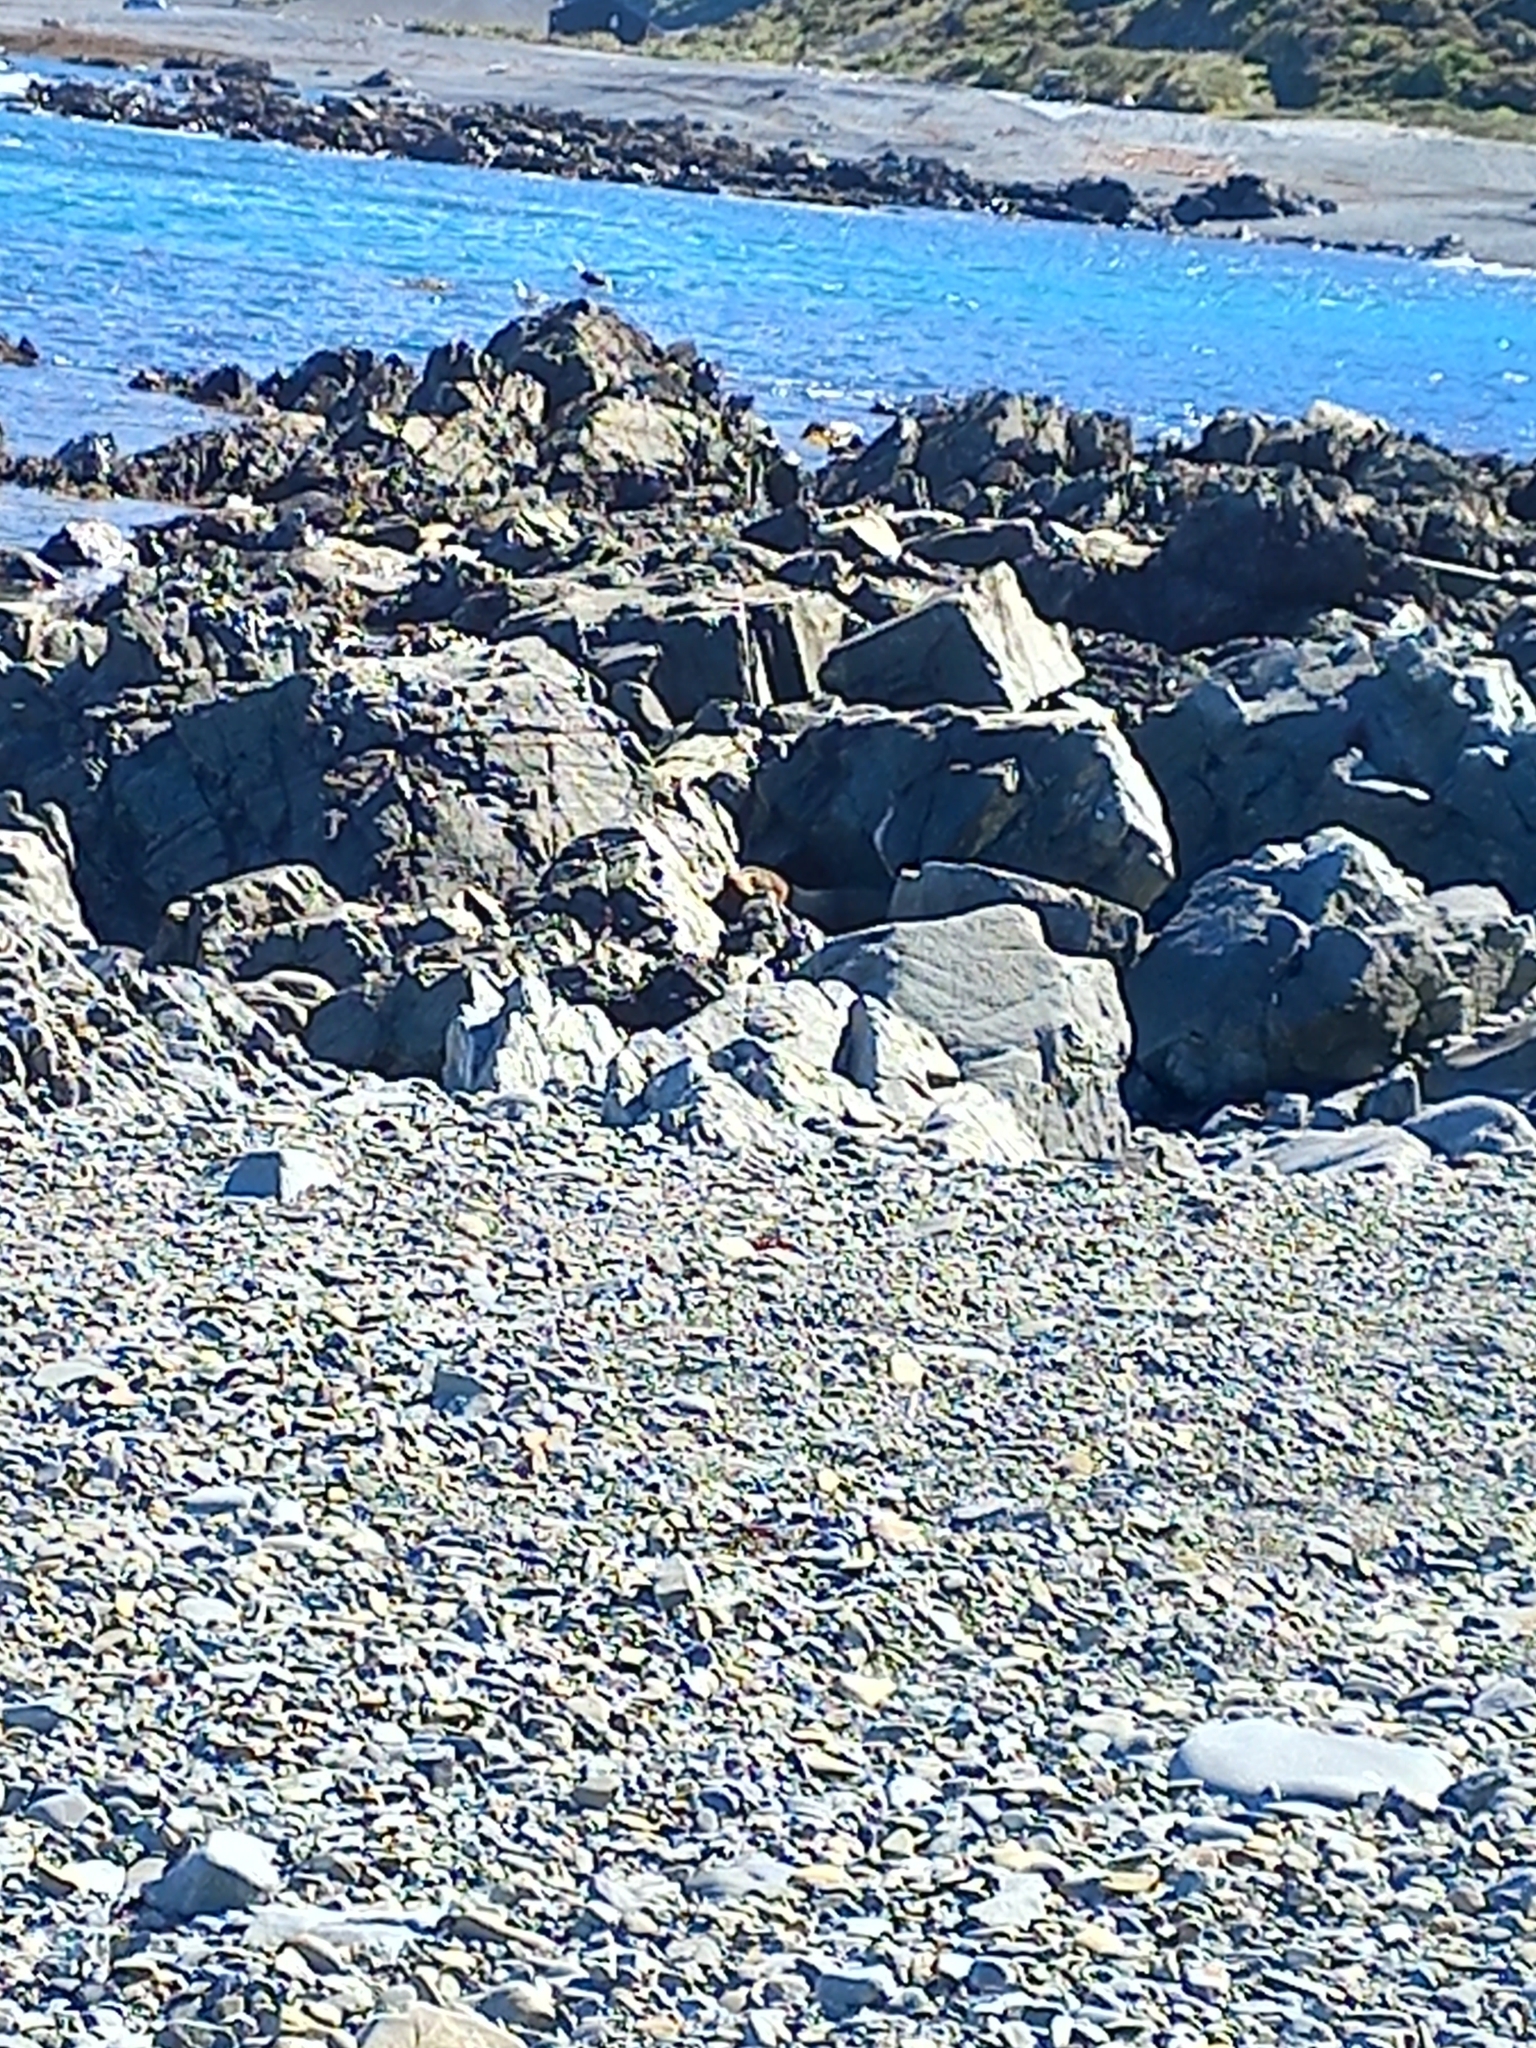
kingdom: Animalia
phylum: Chordata
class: Mammalia
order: Carnivora
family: Otariidae
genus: Arctocephalus
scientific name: Arctocephalus forsteri
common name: New zealand fur seal
